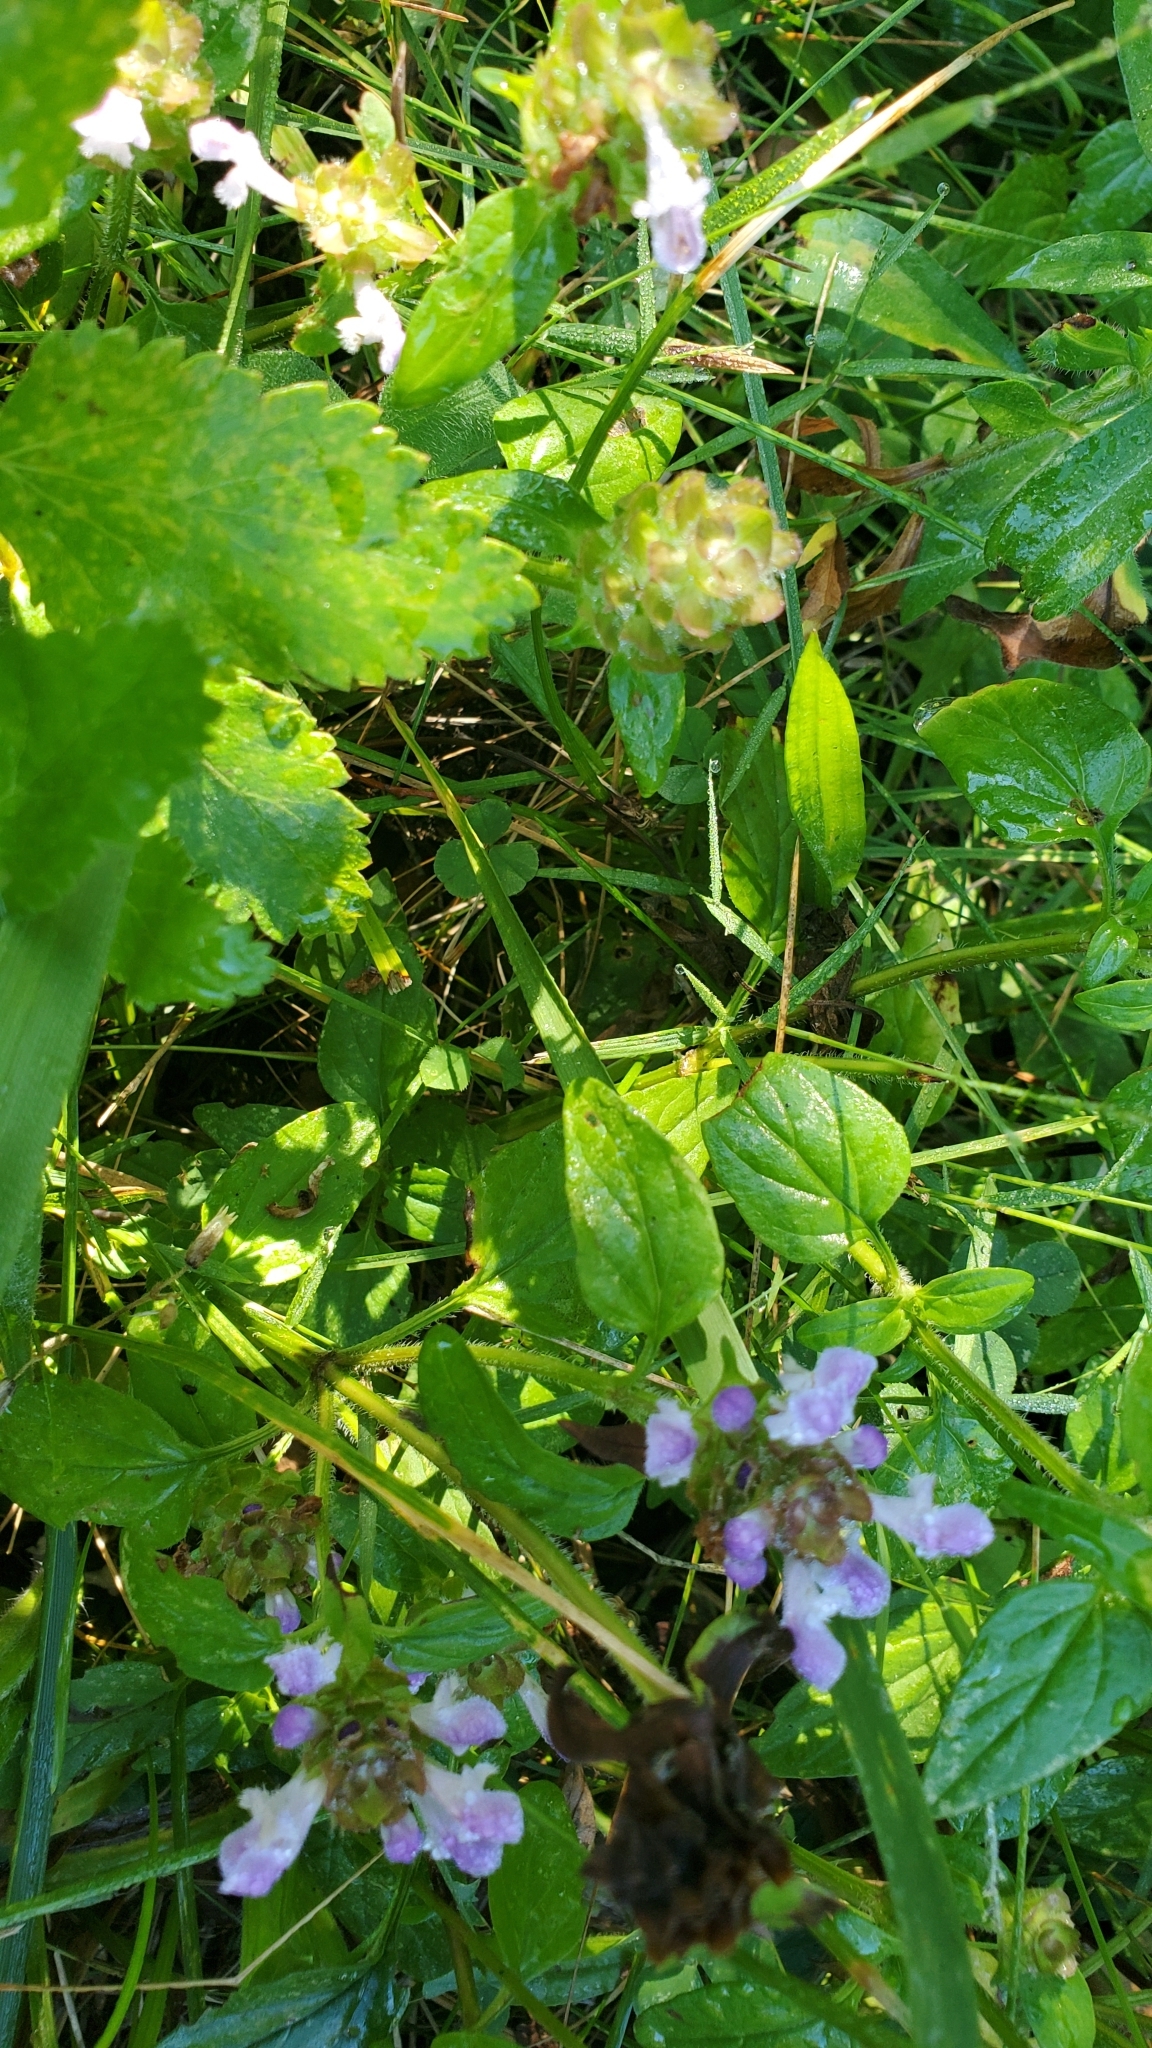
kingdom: Plantae
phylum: Tracheophyta
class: Magnoliopsida
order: Lamiales
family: Lamiaceae
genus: Prunella
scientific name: Prunella vulgaris
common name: Heal-all
